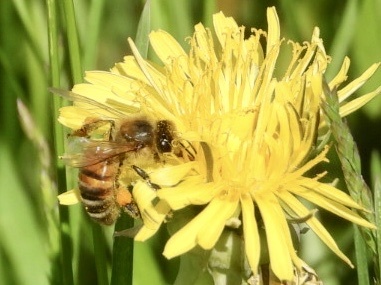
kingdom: Animalia
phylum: Arthropoda
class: Insecta
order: Hymenoptera
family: Apidae
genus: Apis
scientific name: Apis mellifera
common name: Honey bee
